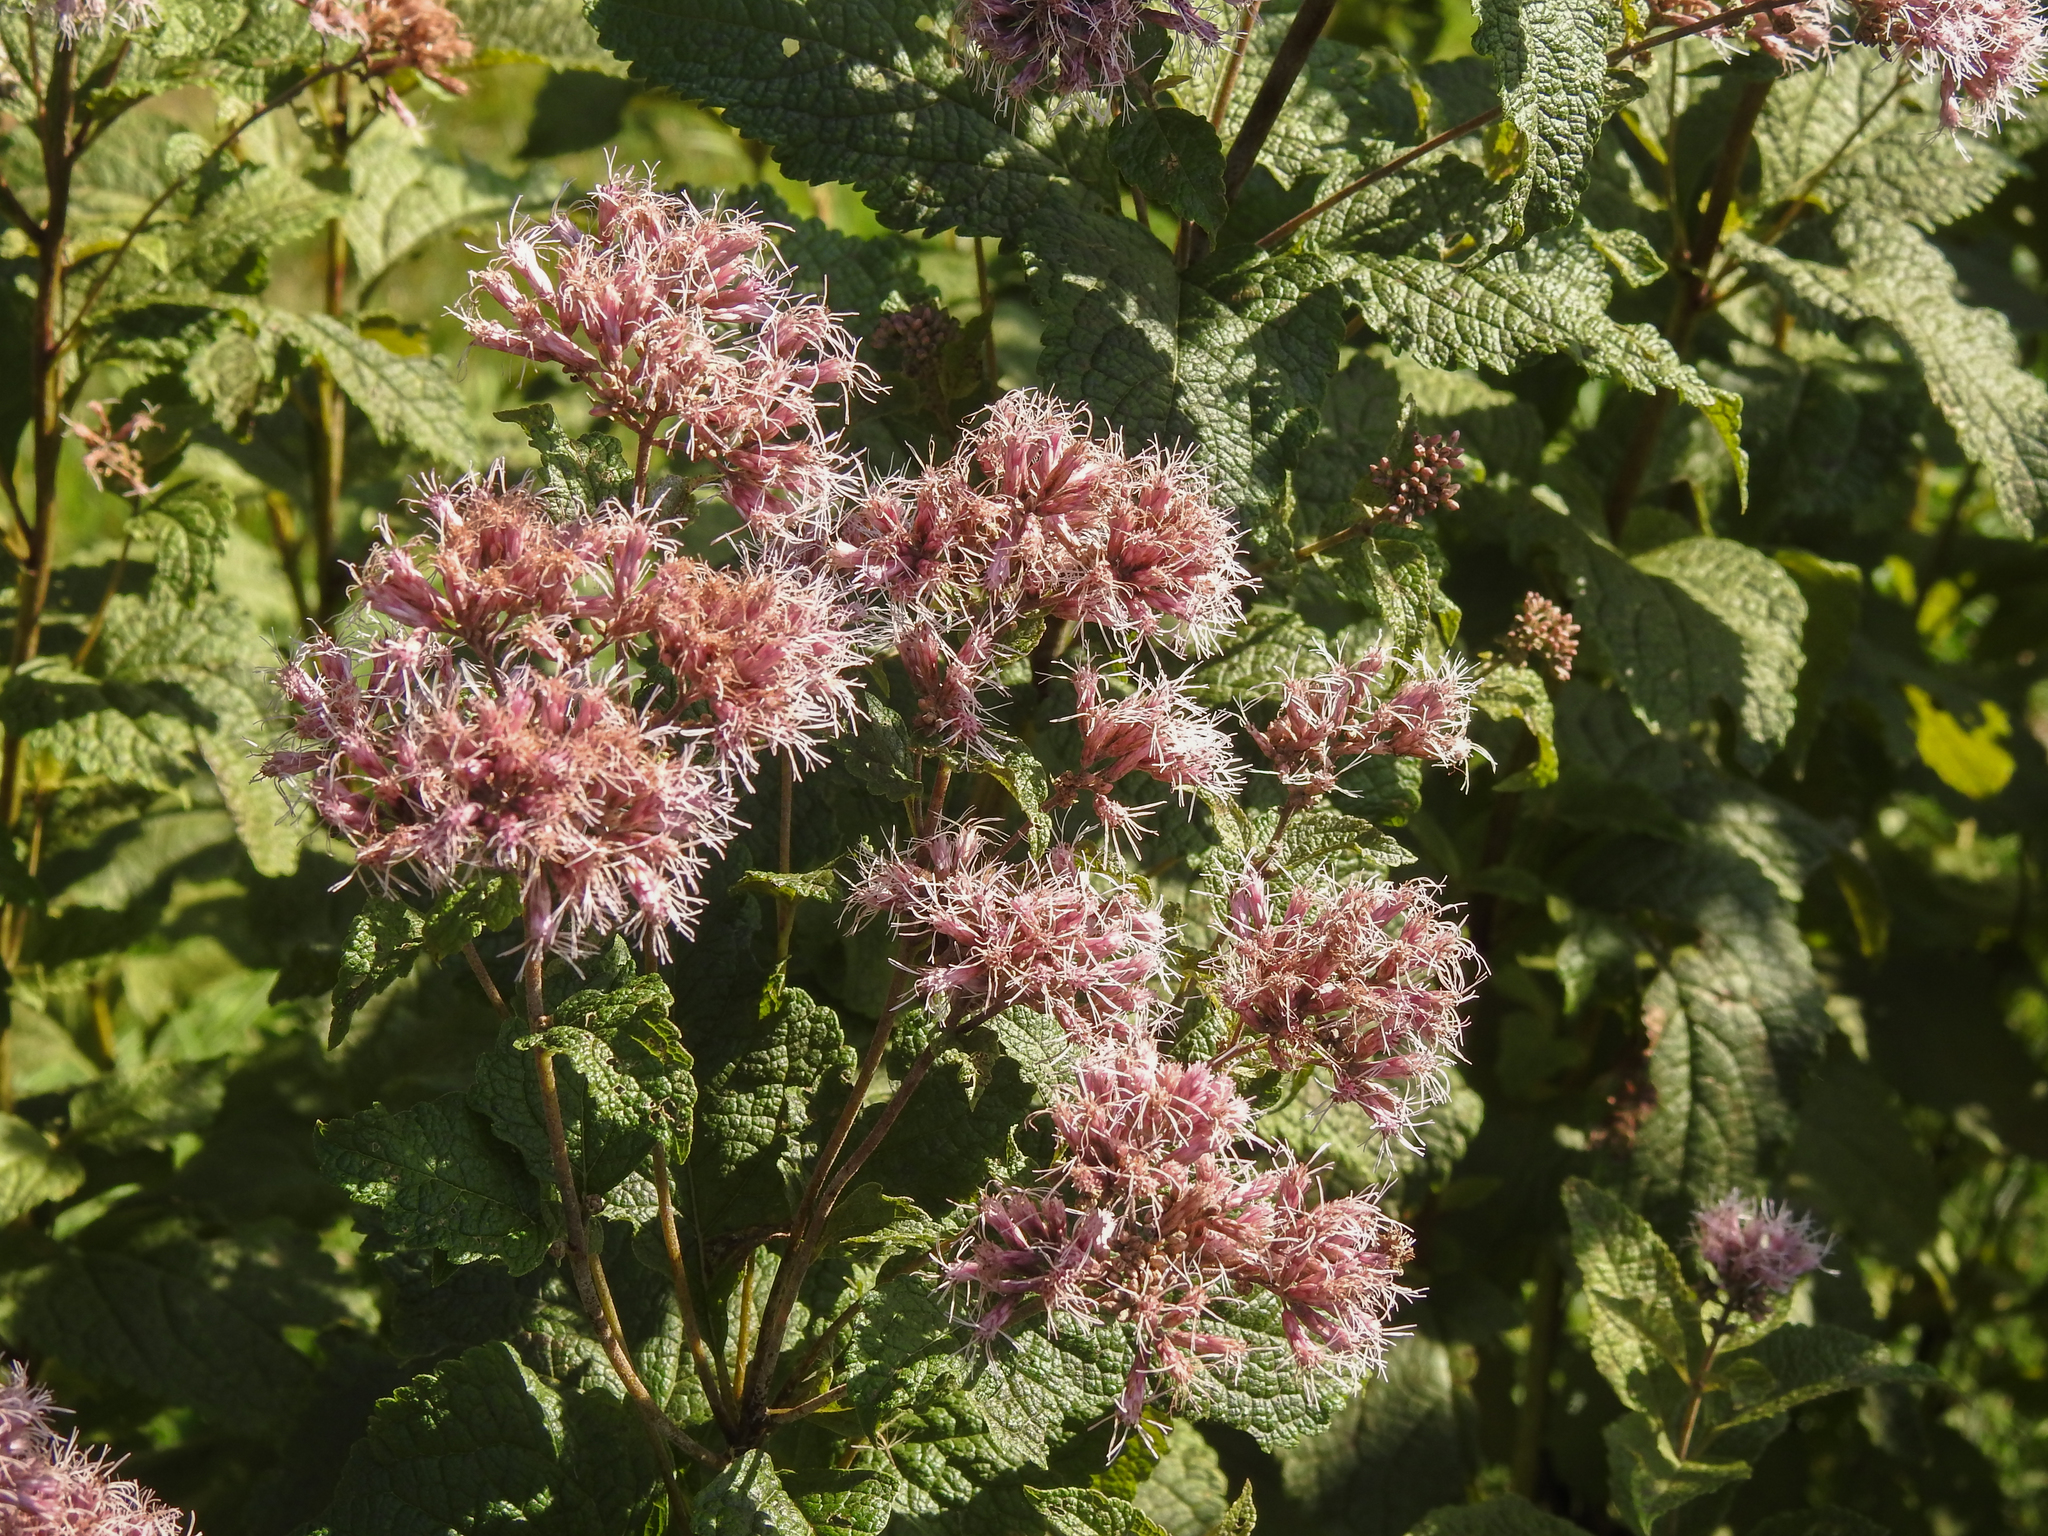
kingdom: Plantae
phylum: Tracheophyta
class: Magnoliopsida
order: Asterales
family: Asteraceae
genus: Eutrochium
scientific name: Eutrochium dubium
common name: Coastal plain joe pye weed
